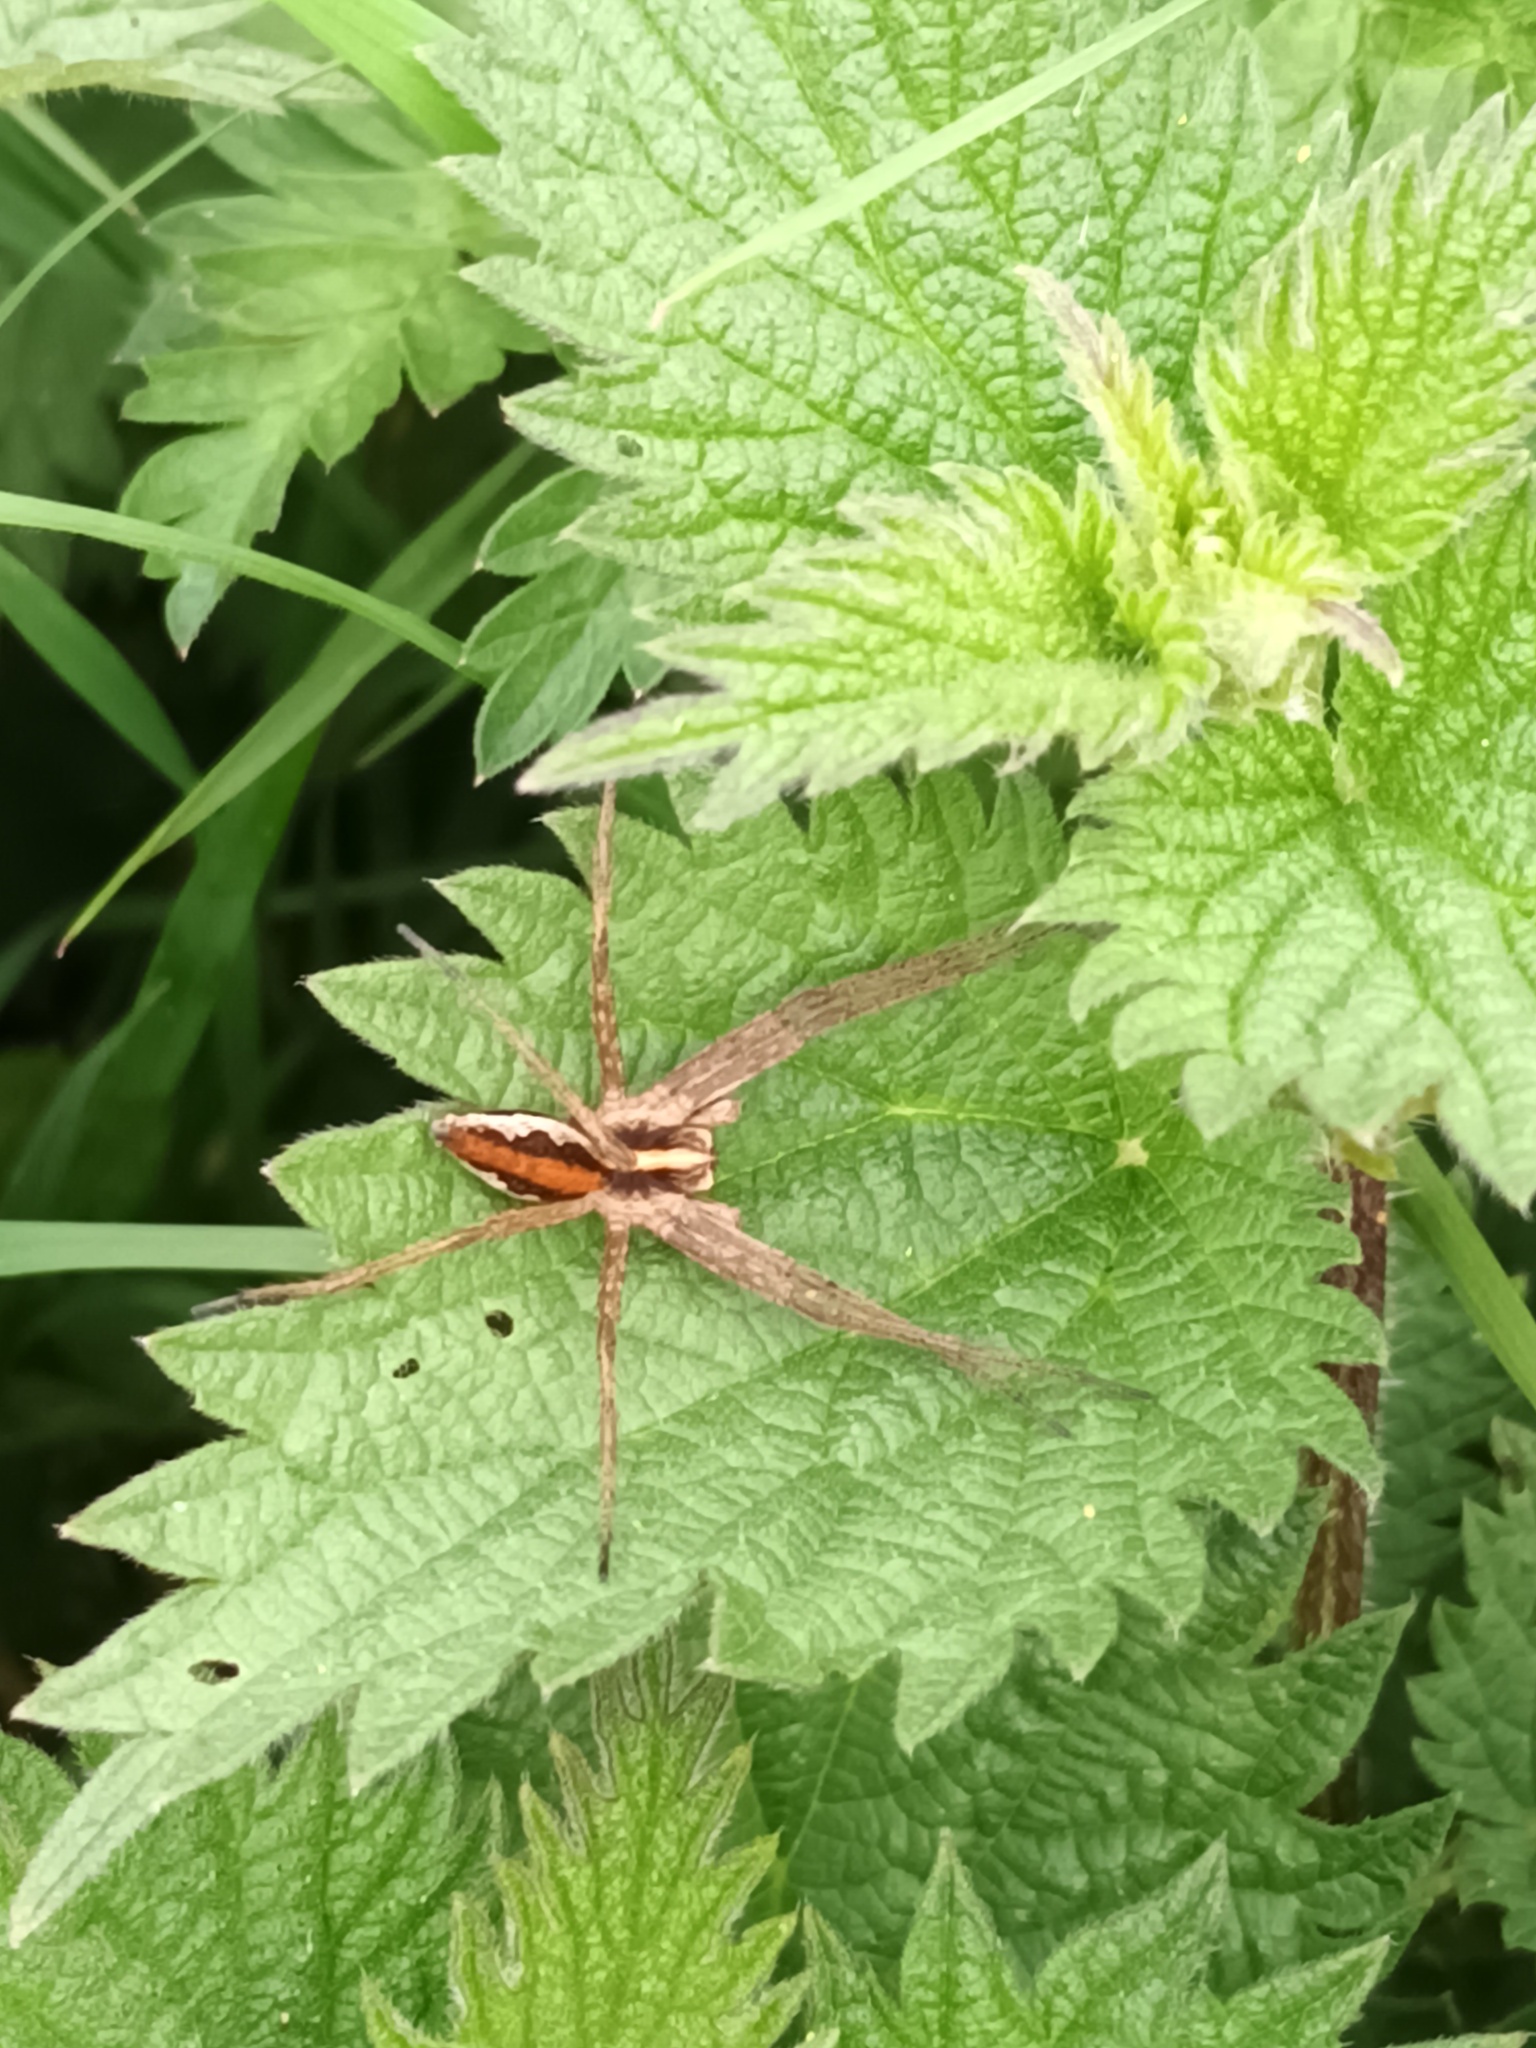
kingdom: Animalia
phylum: Arthropoda
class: Arachnida
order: Araneae
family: Pisauridae
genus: Pisaura
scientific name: Pisaura mirabilis
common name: Tent spider
